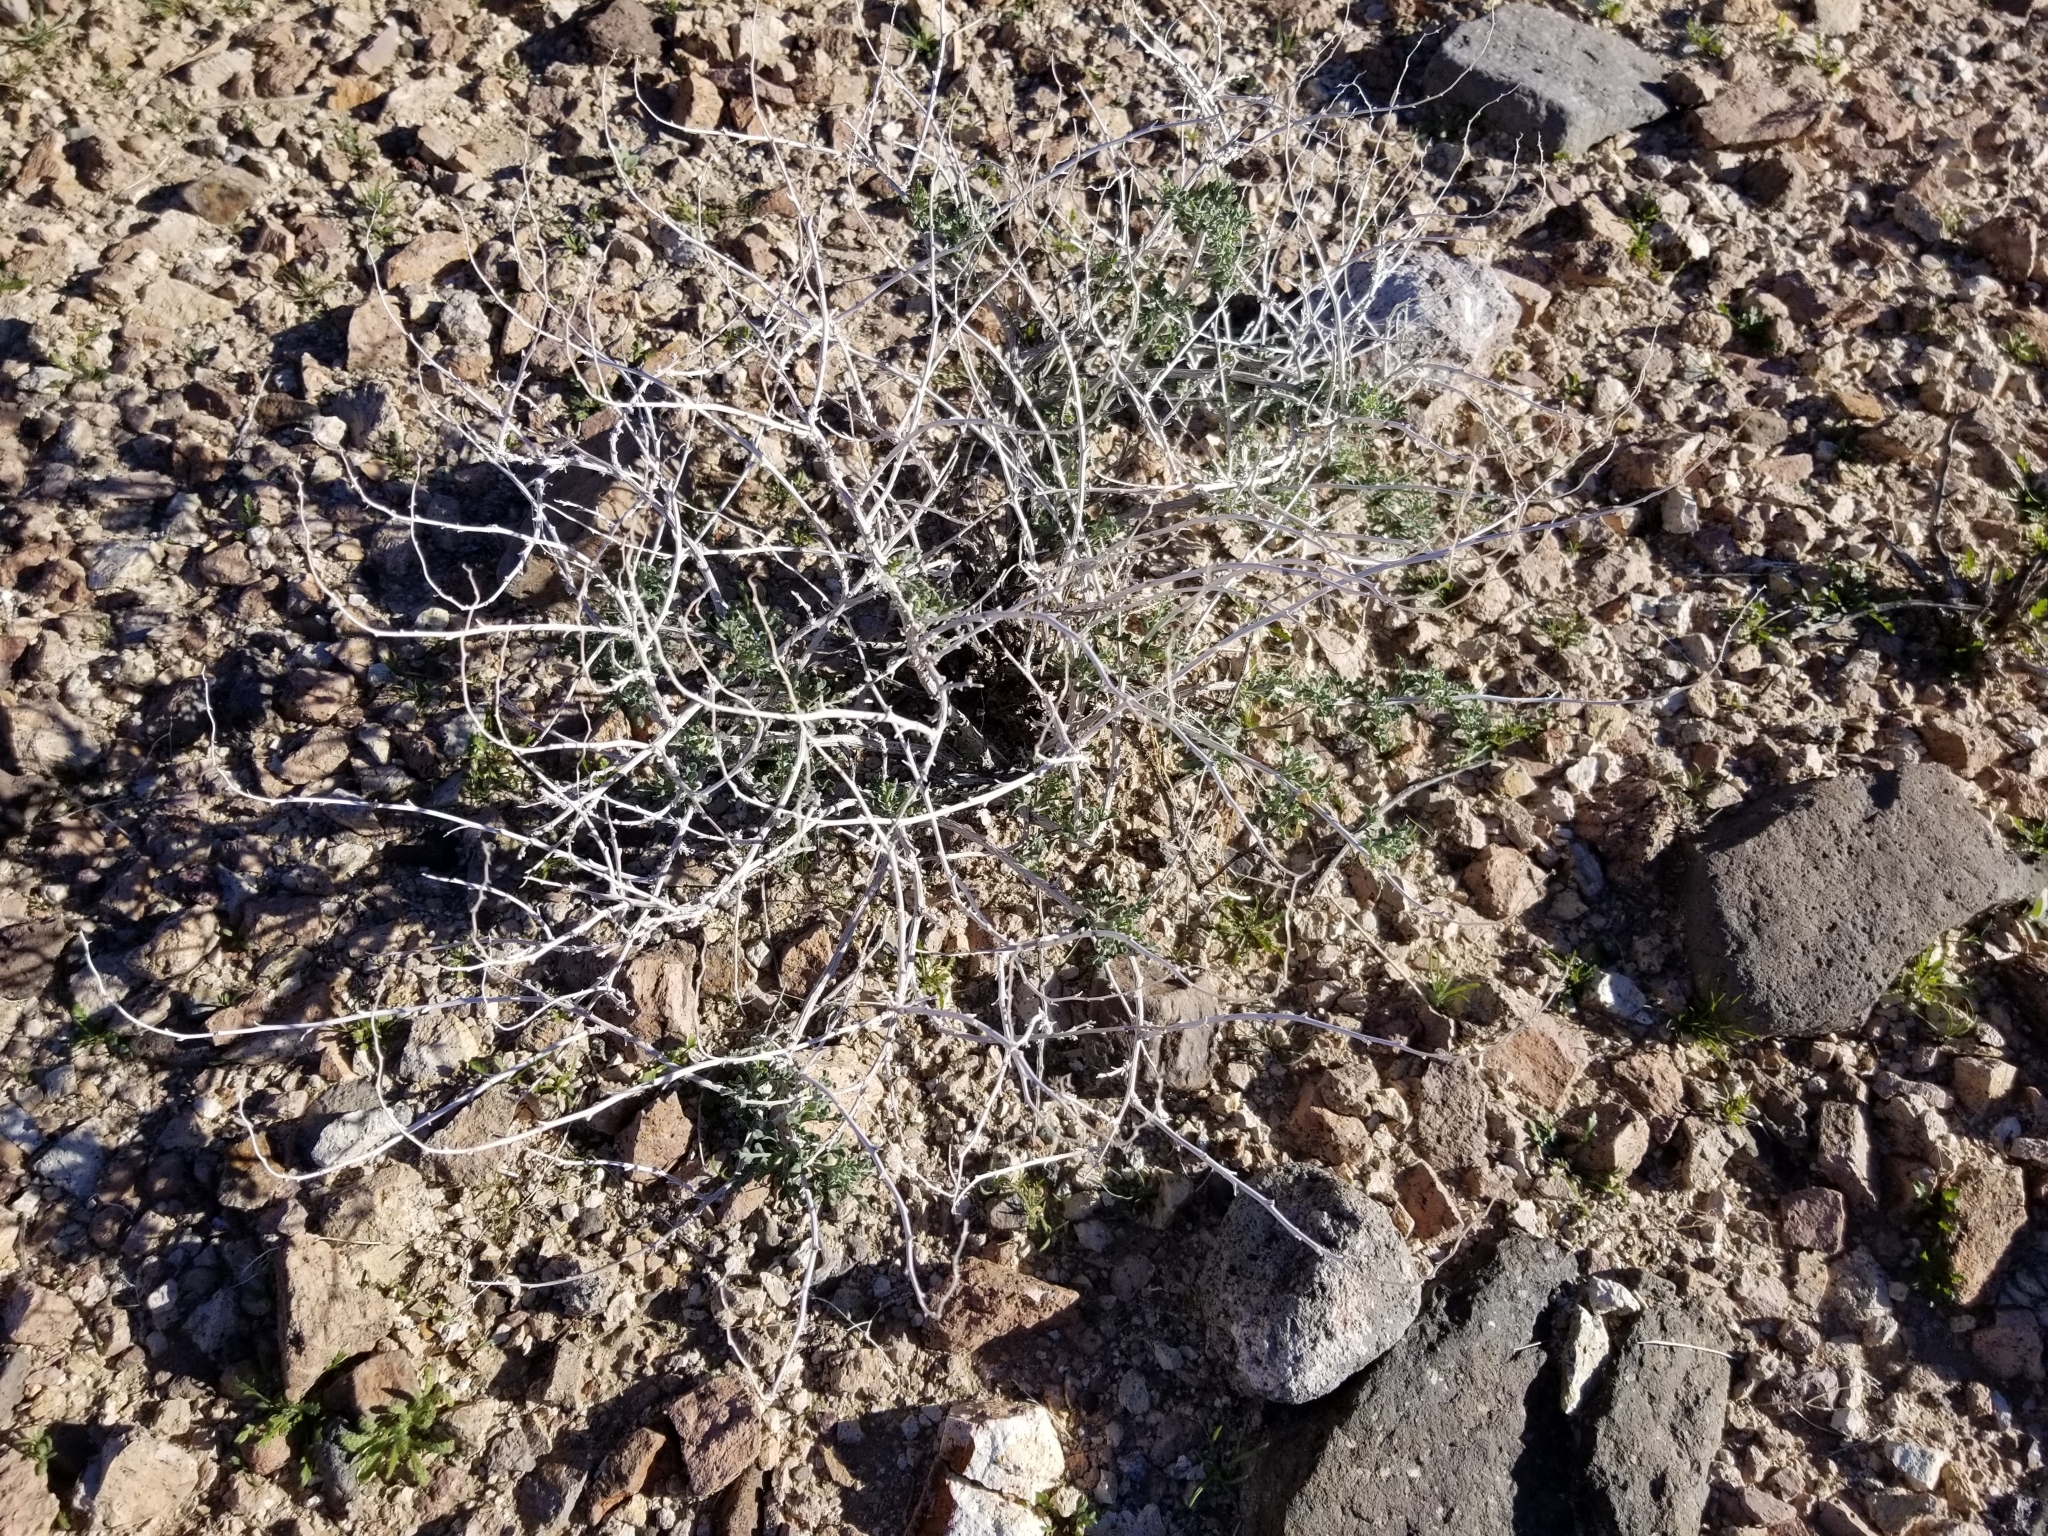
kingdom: Plantae
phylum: Tracheophyta
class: Magnoliopsida
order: Asterales
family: Asteraceae
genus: Ambrosia
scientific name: Ambrosia dumosa
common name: Bur-sage
